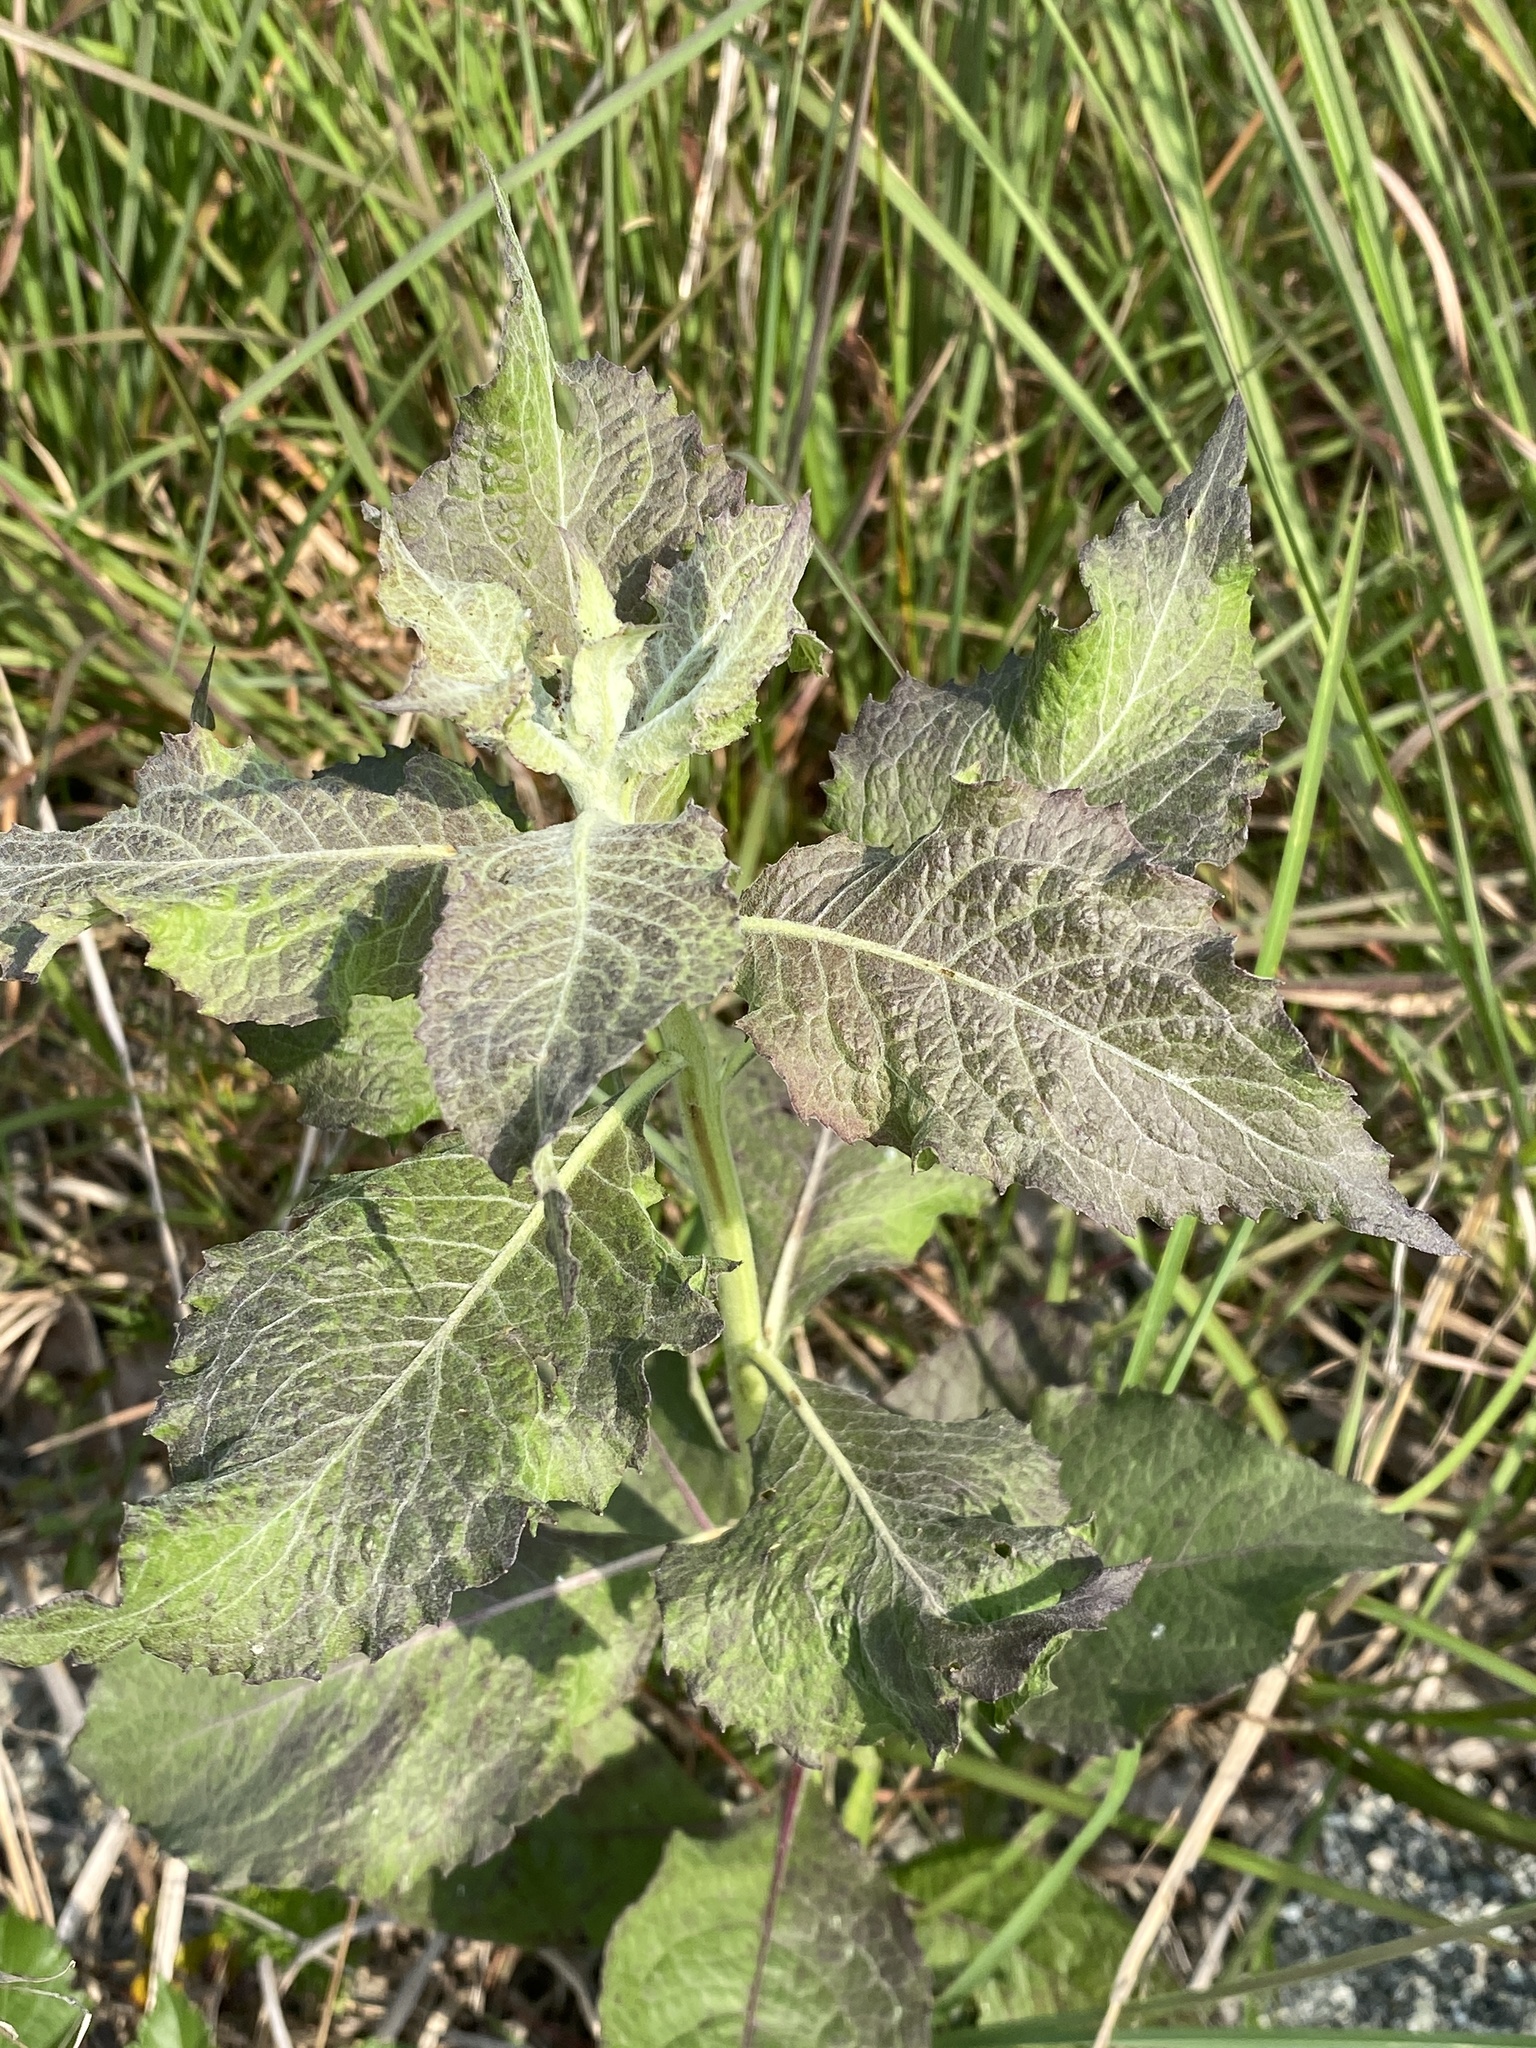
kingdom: Plantae
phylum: Tracheophyta
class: Magnoliopsida
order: Asterales
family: Asteraceae
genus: Pluchea
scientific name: Pluchea camphorata
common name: Camphor pluchea
